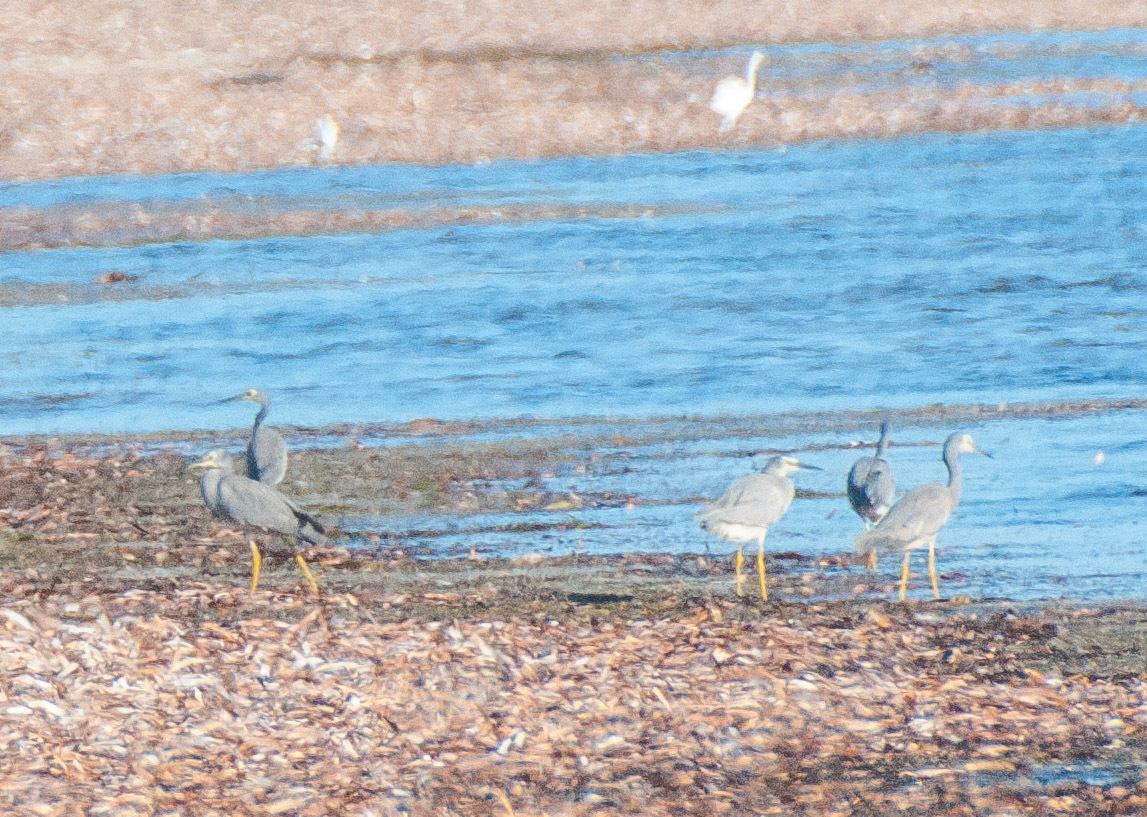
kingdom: Animalia
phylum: Chordata
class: Aves
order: Pelecaniformes
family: Ardeidae
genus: Egretta
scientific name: Egretta novaehollandiae
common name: White-faced heron
